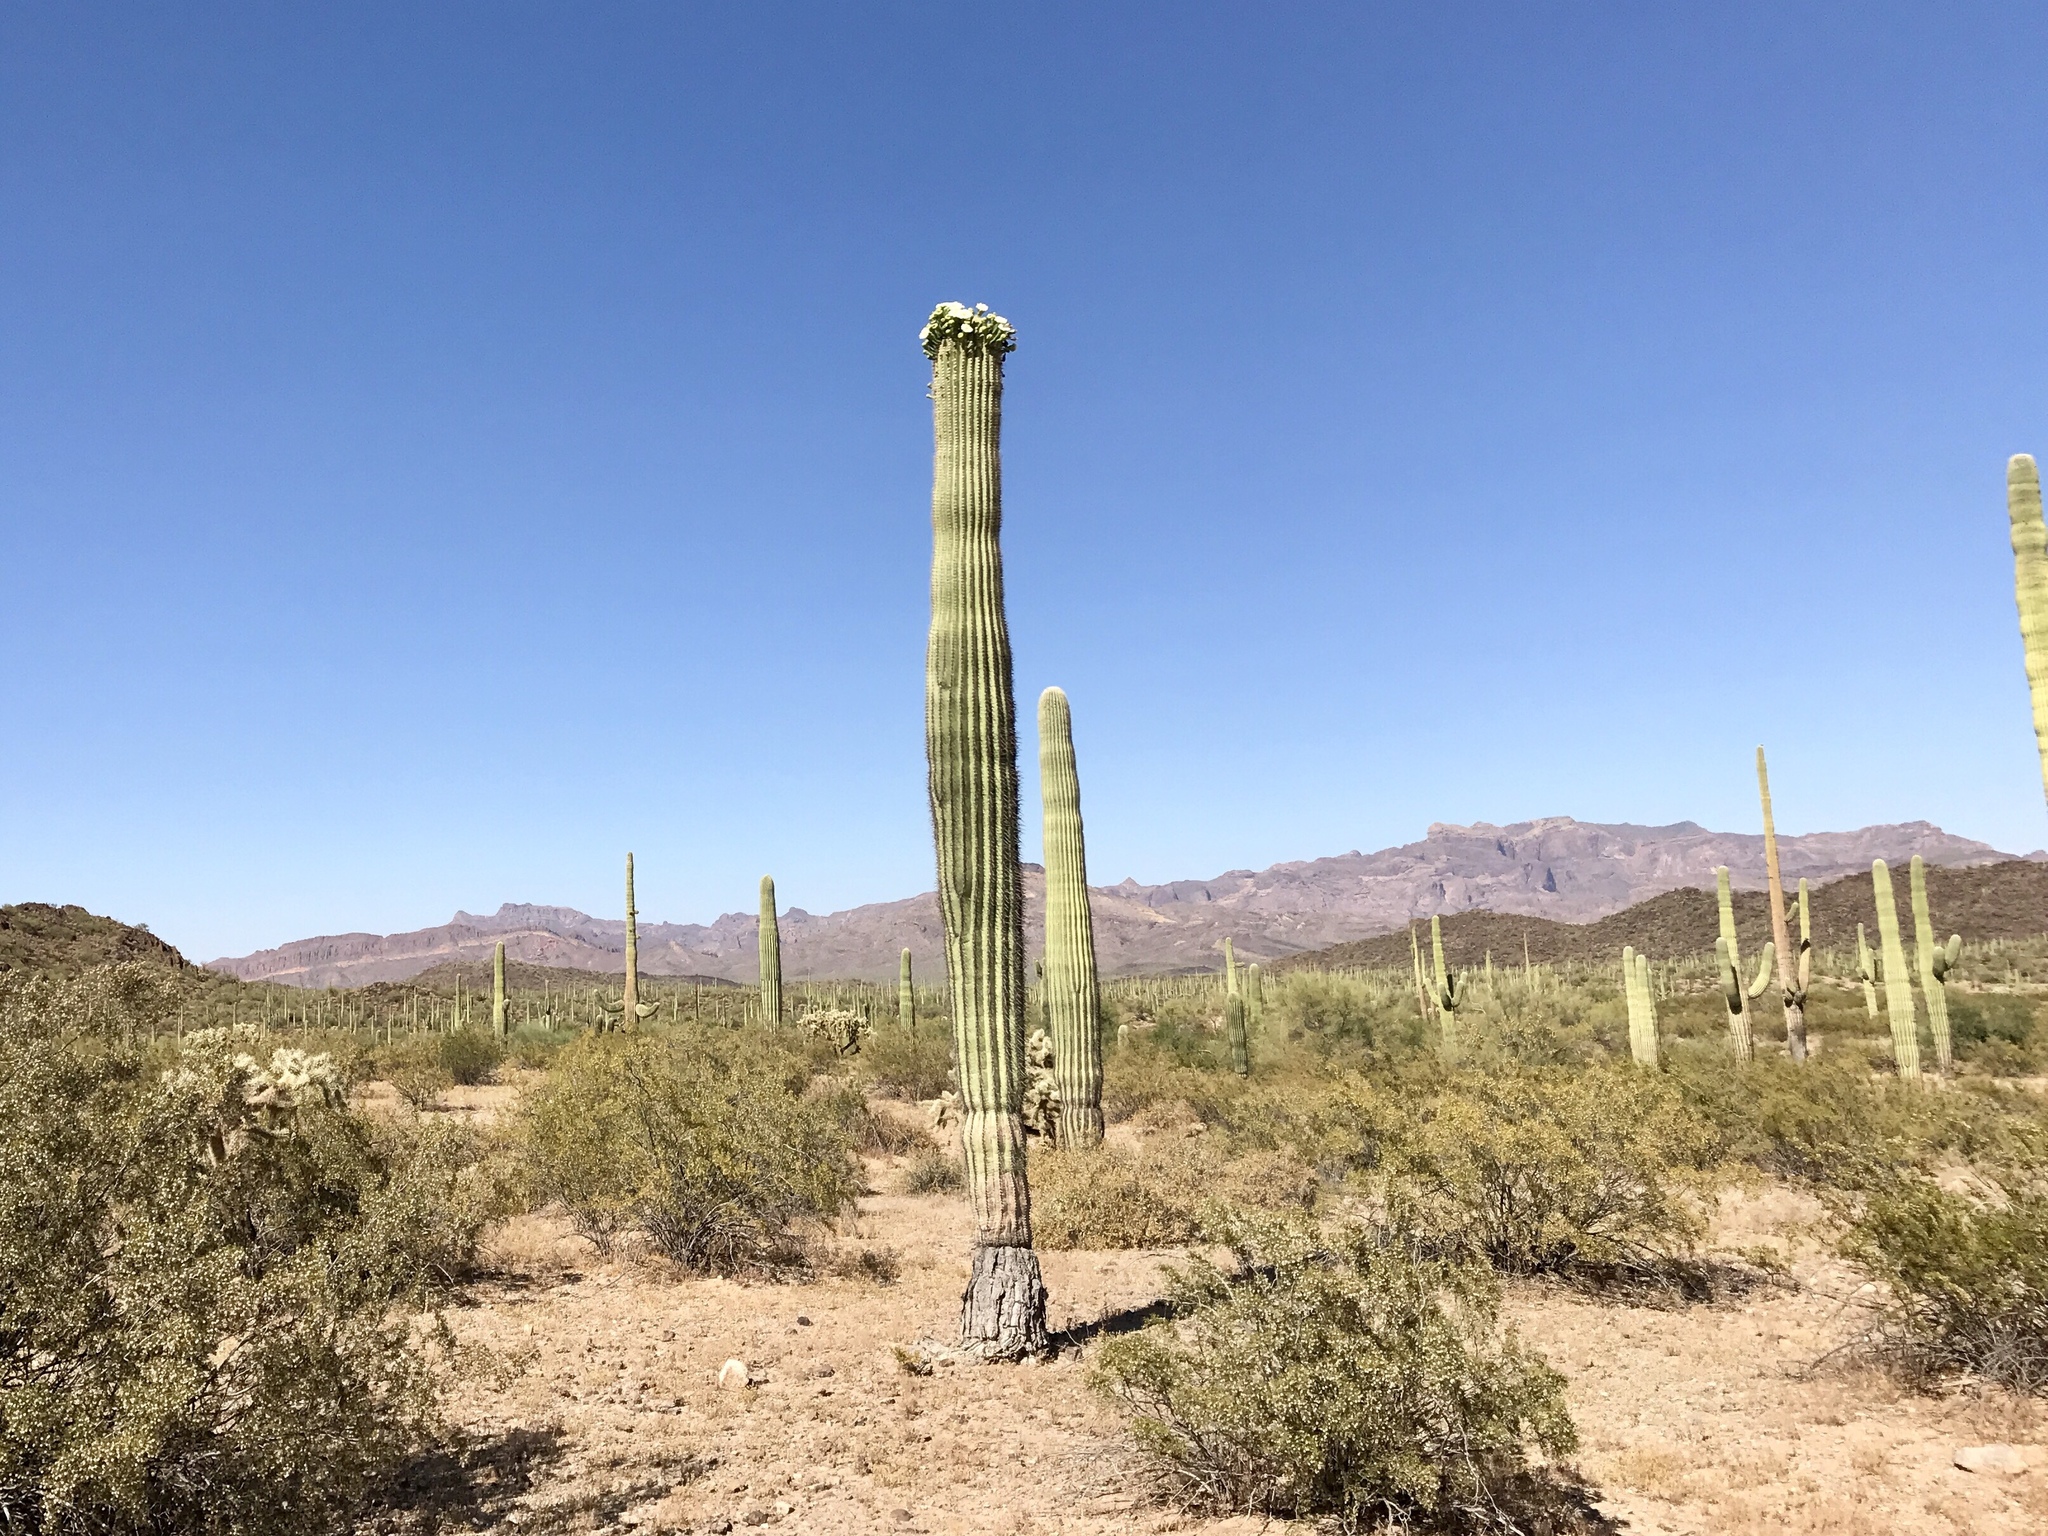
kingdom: Plantae
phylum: Tracheophyta
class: Magnoliopsida
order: Caryophyllales
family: Cactaceae
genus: Carnegiea
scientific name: Carnegiea gigantea
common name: Saguaro
